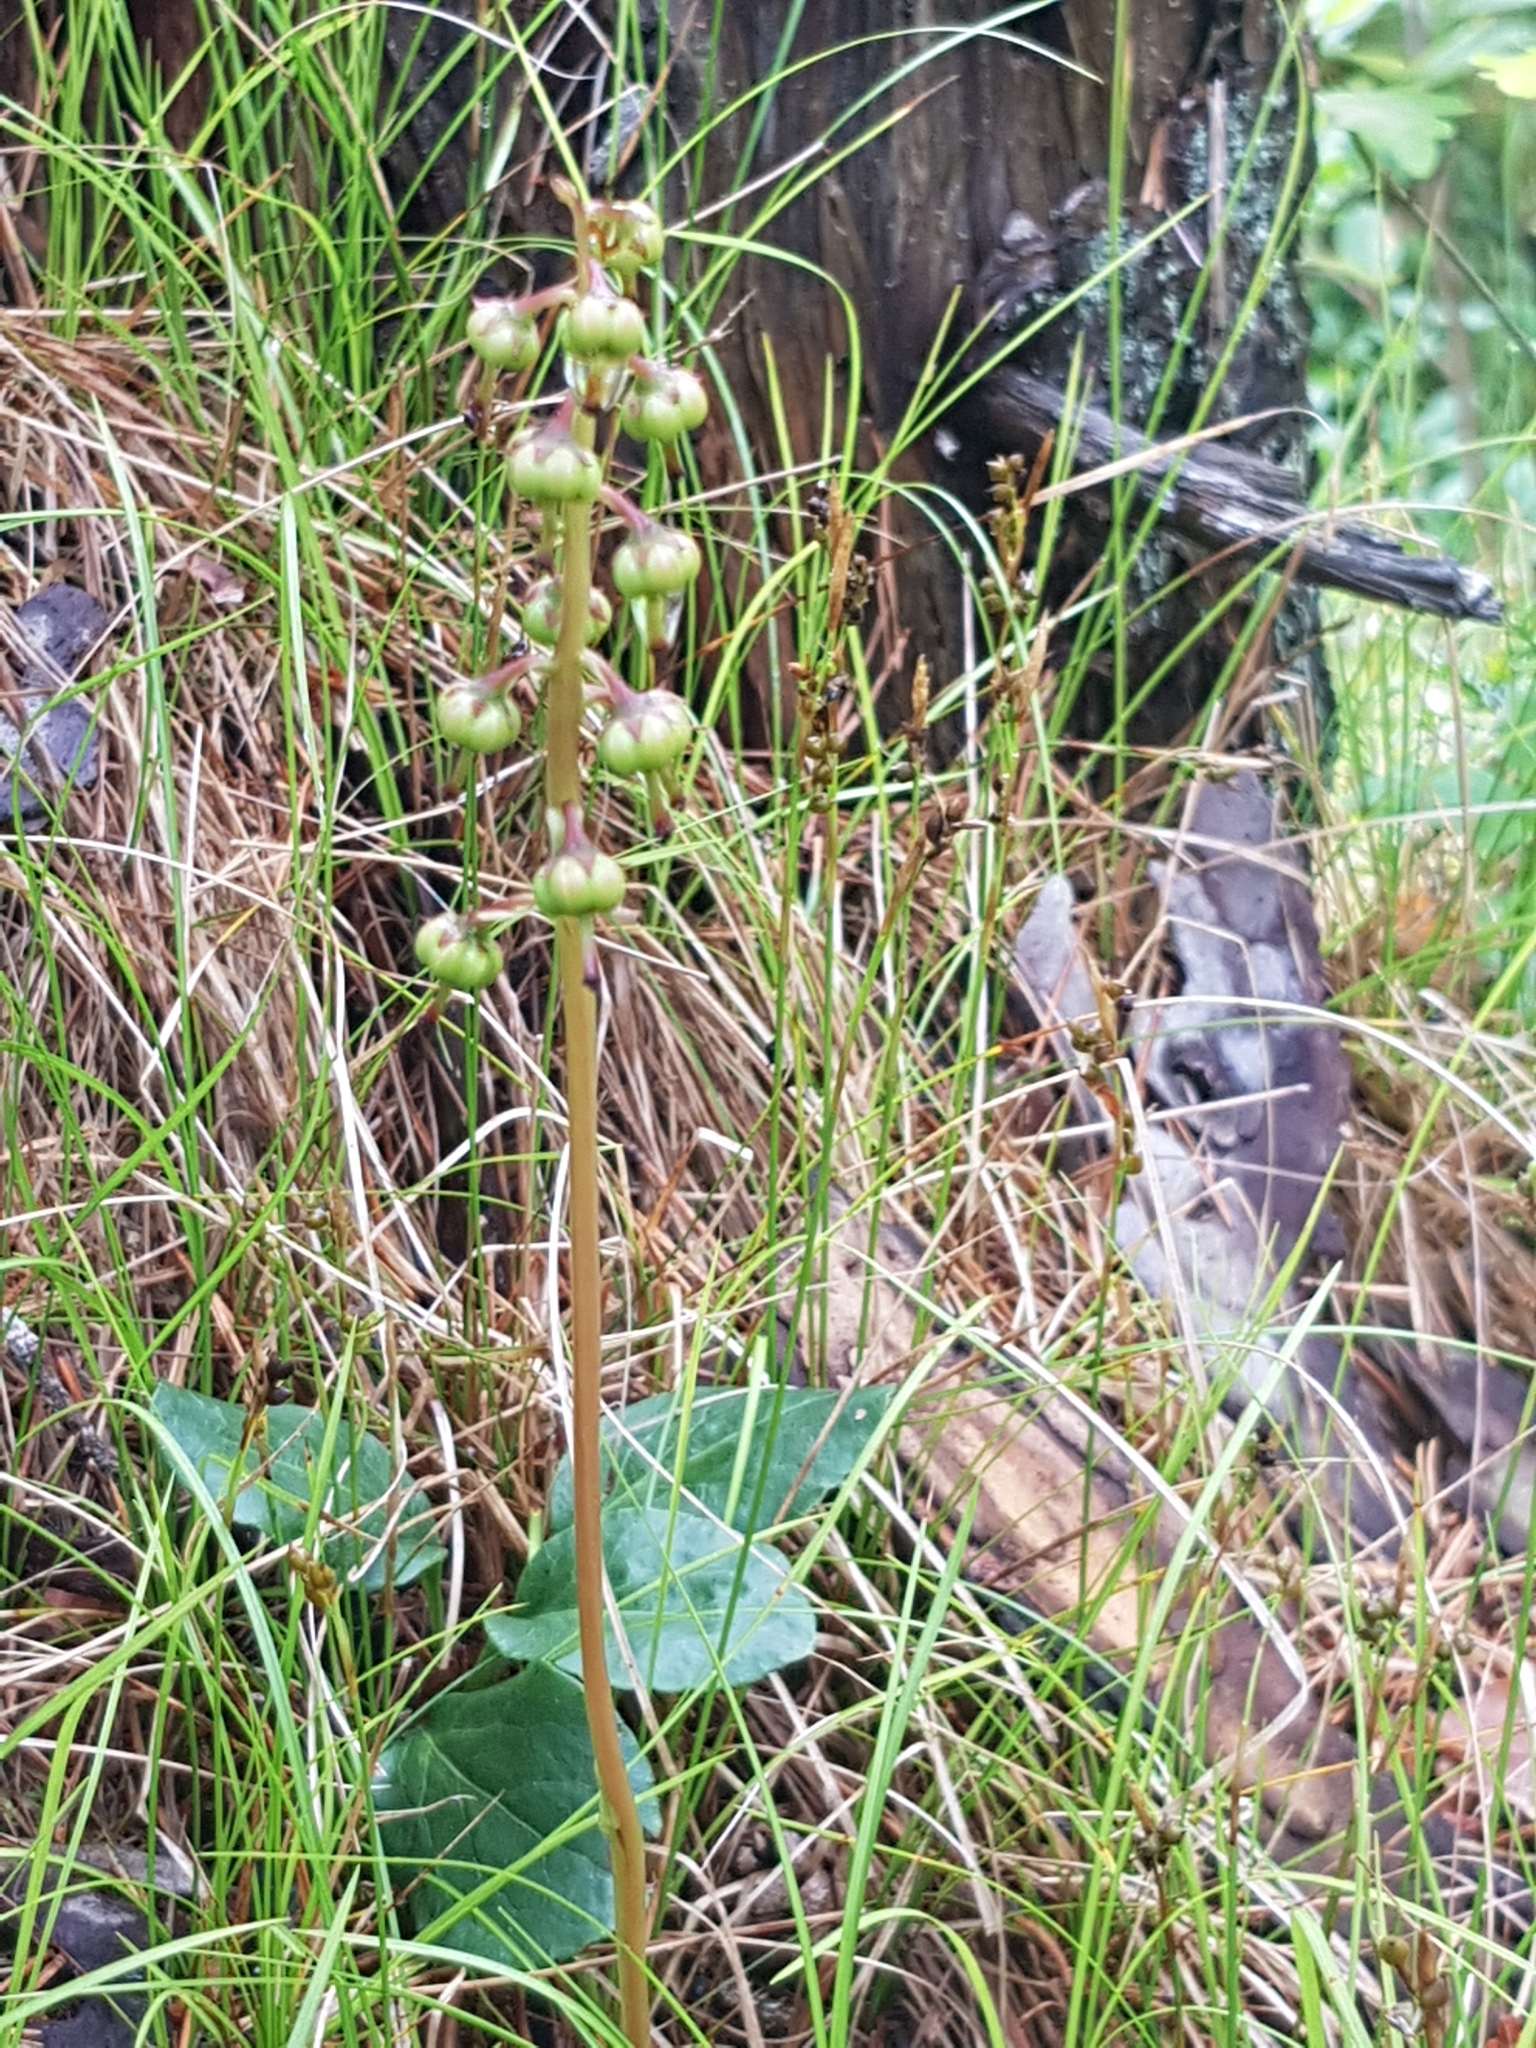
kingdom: Plantae
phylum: Tracheophyta
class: Magnoliopsida
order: Ericales
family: Ericaceae
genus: Pyrola
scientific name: Pyrola media
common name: Intermediate wintergreen
